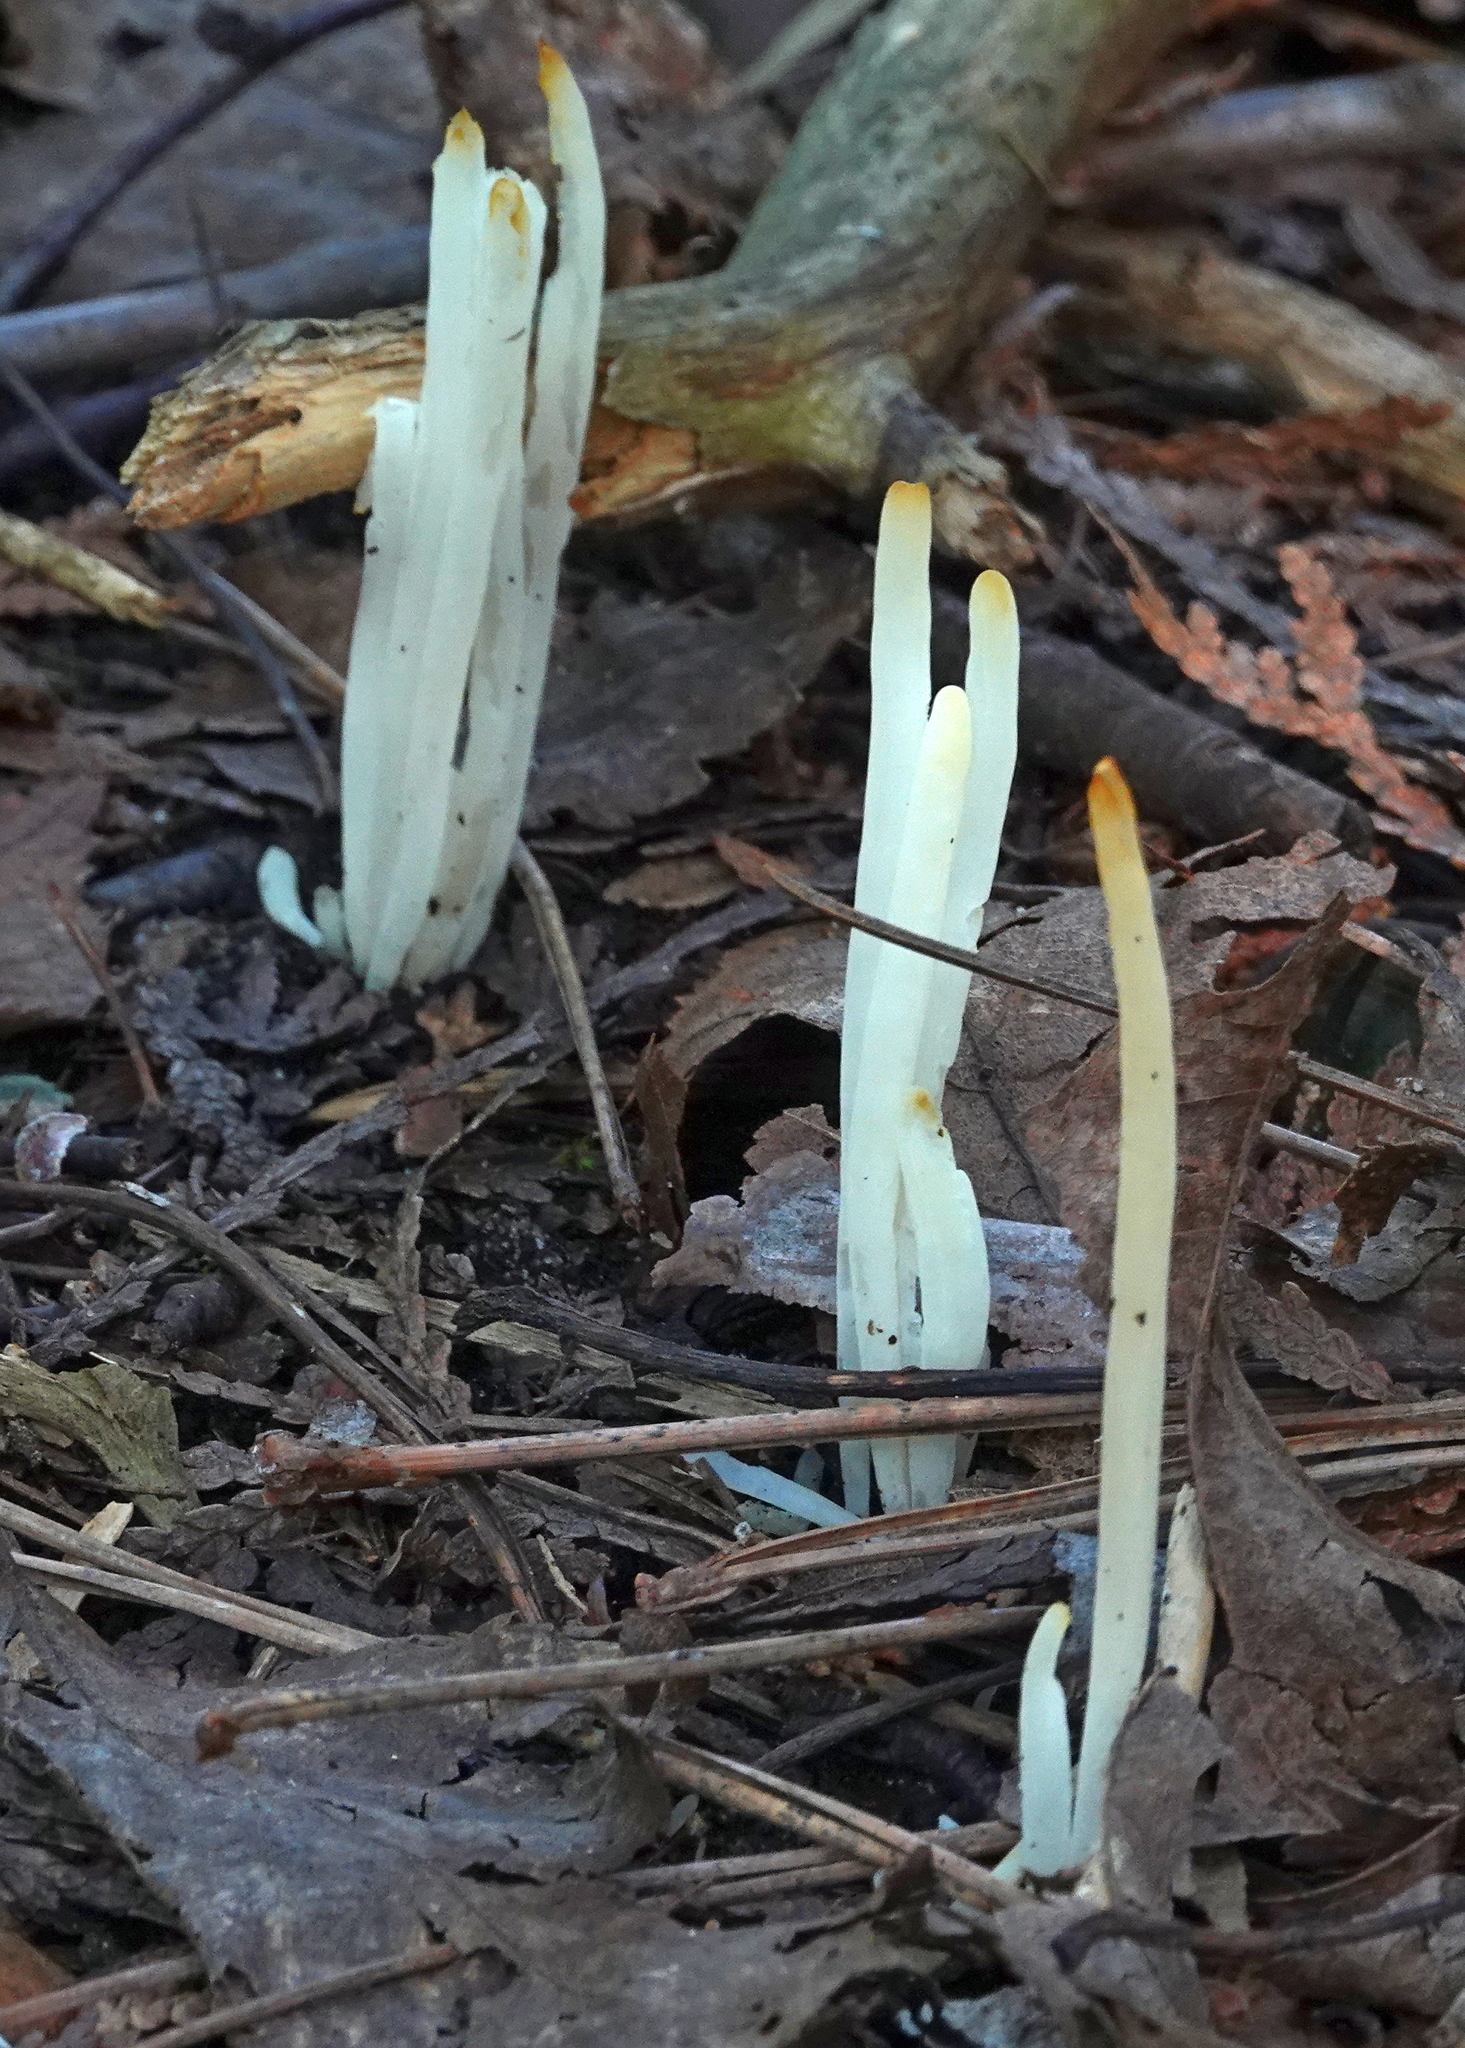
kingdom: Fungi
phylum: Basidiomycota
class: Agaricomycetes
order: Agaricales
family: Clavariaceae
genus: Clavaria
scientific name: Clavaria fragilis
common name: White spindles
